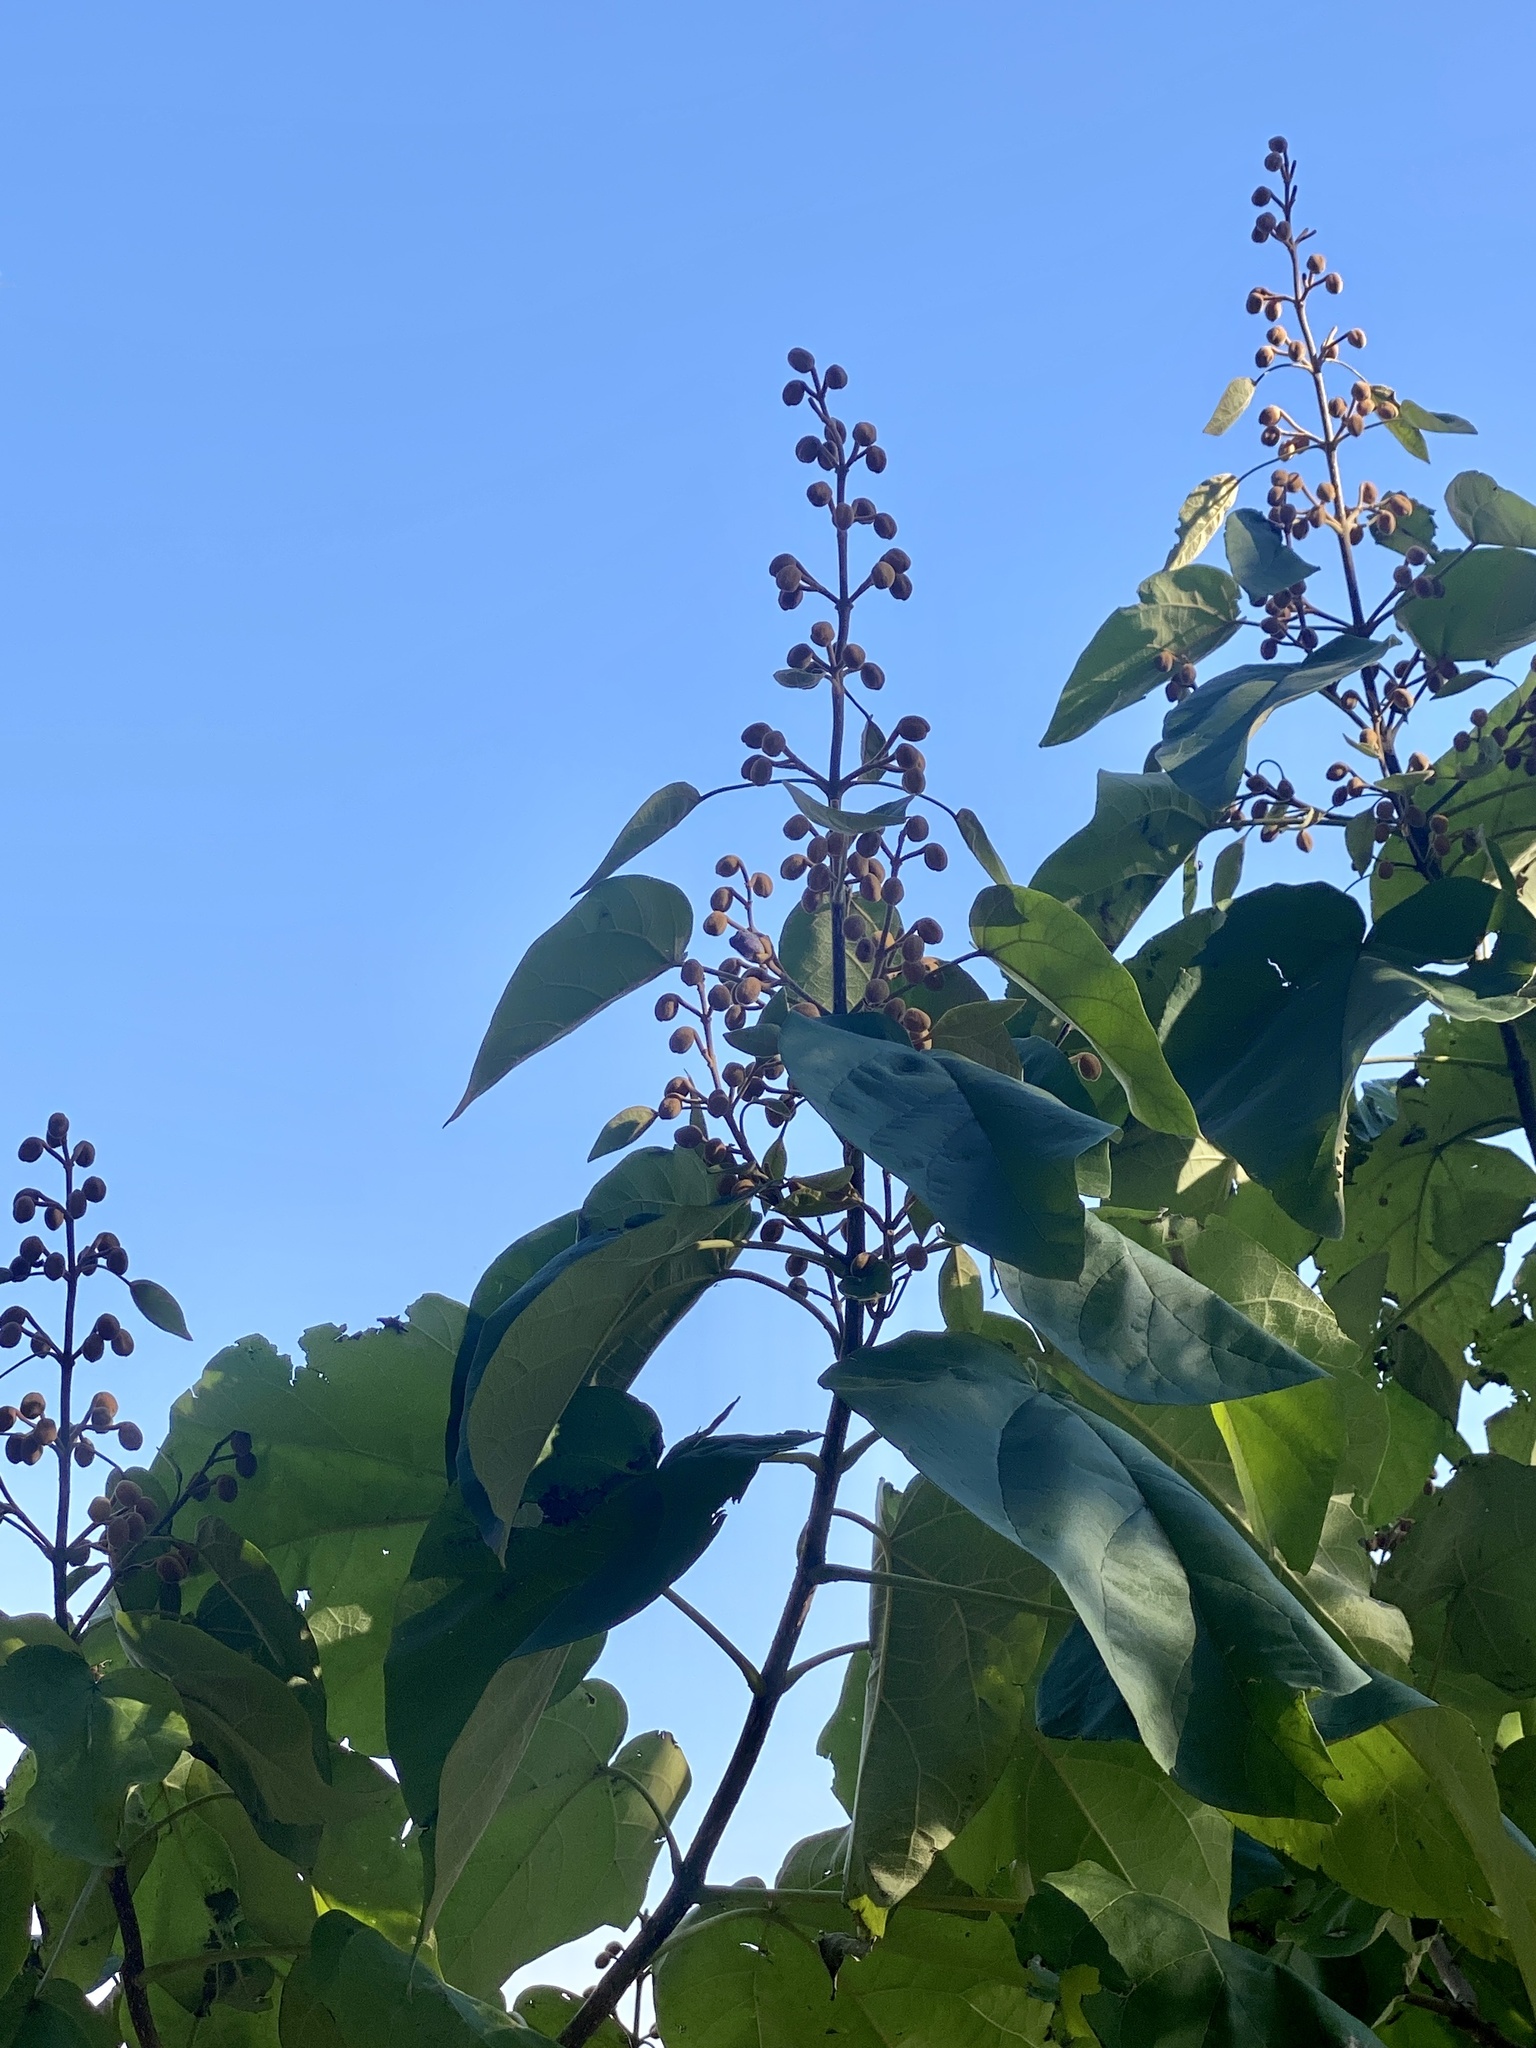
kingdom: Plantae
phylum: Tracheophyta
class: Magnoliopsida
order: Lamiales
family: Paulowniaceae
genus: Paulownia
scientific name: Paulownia tomentosa
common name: Foxglove-tree
